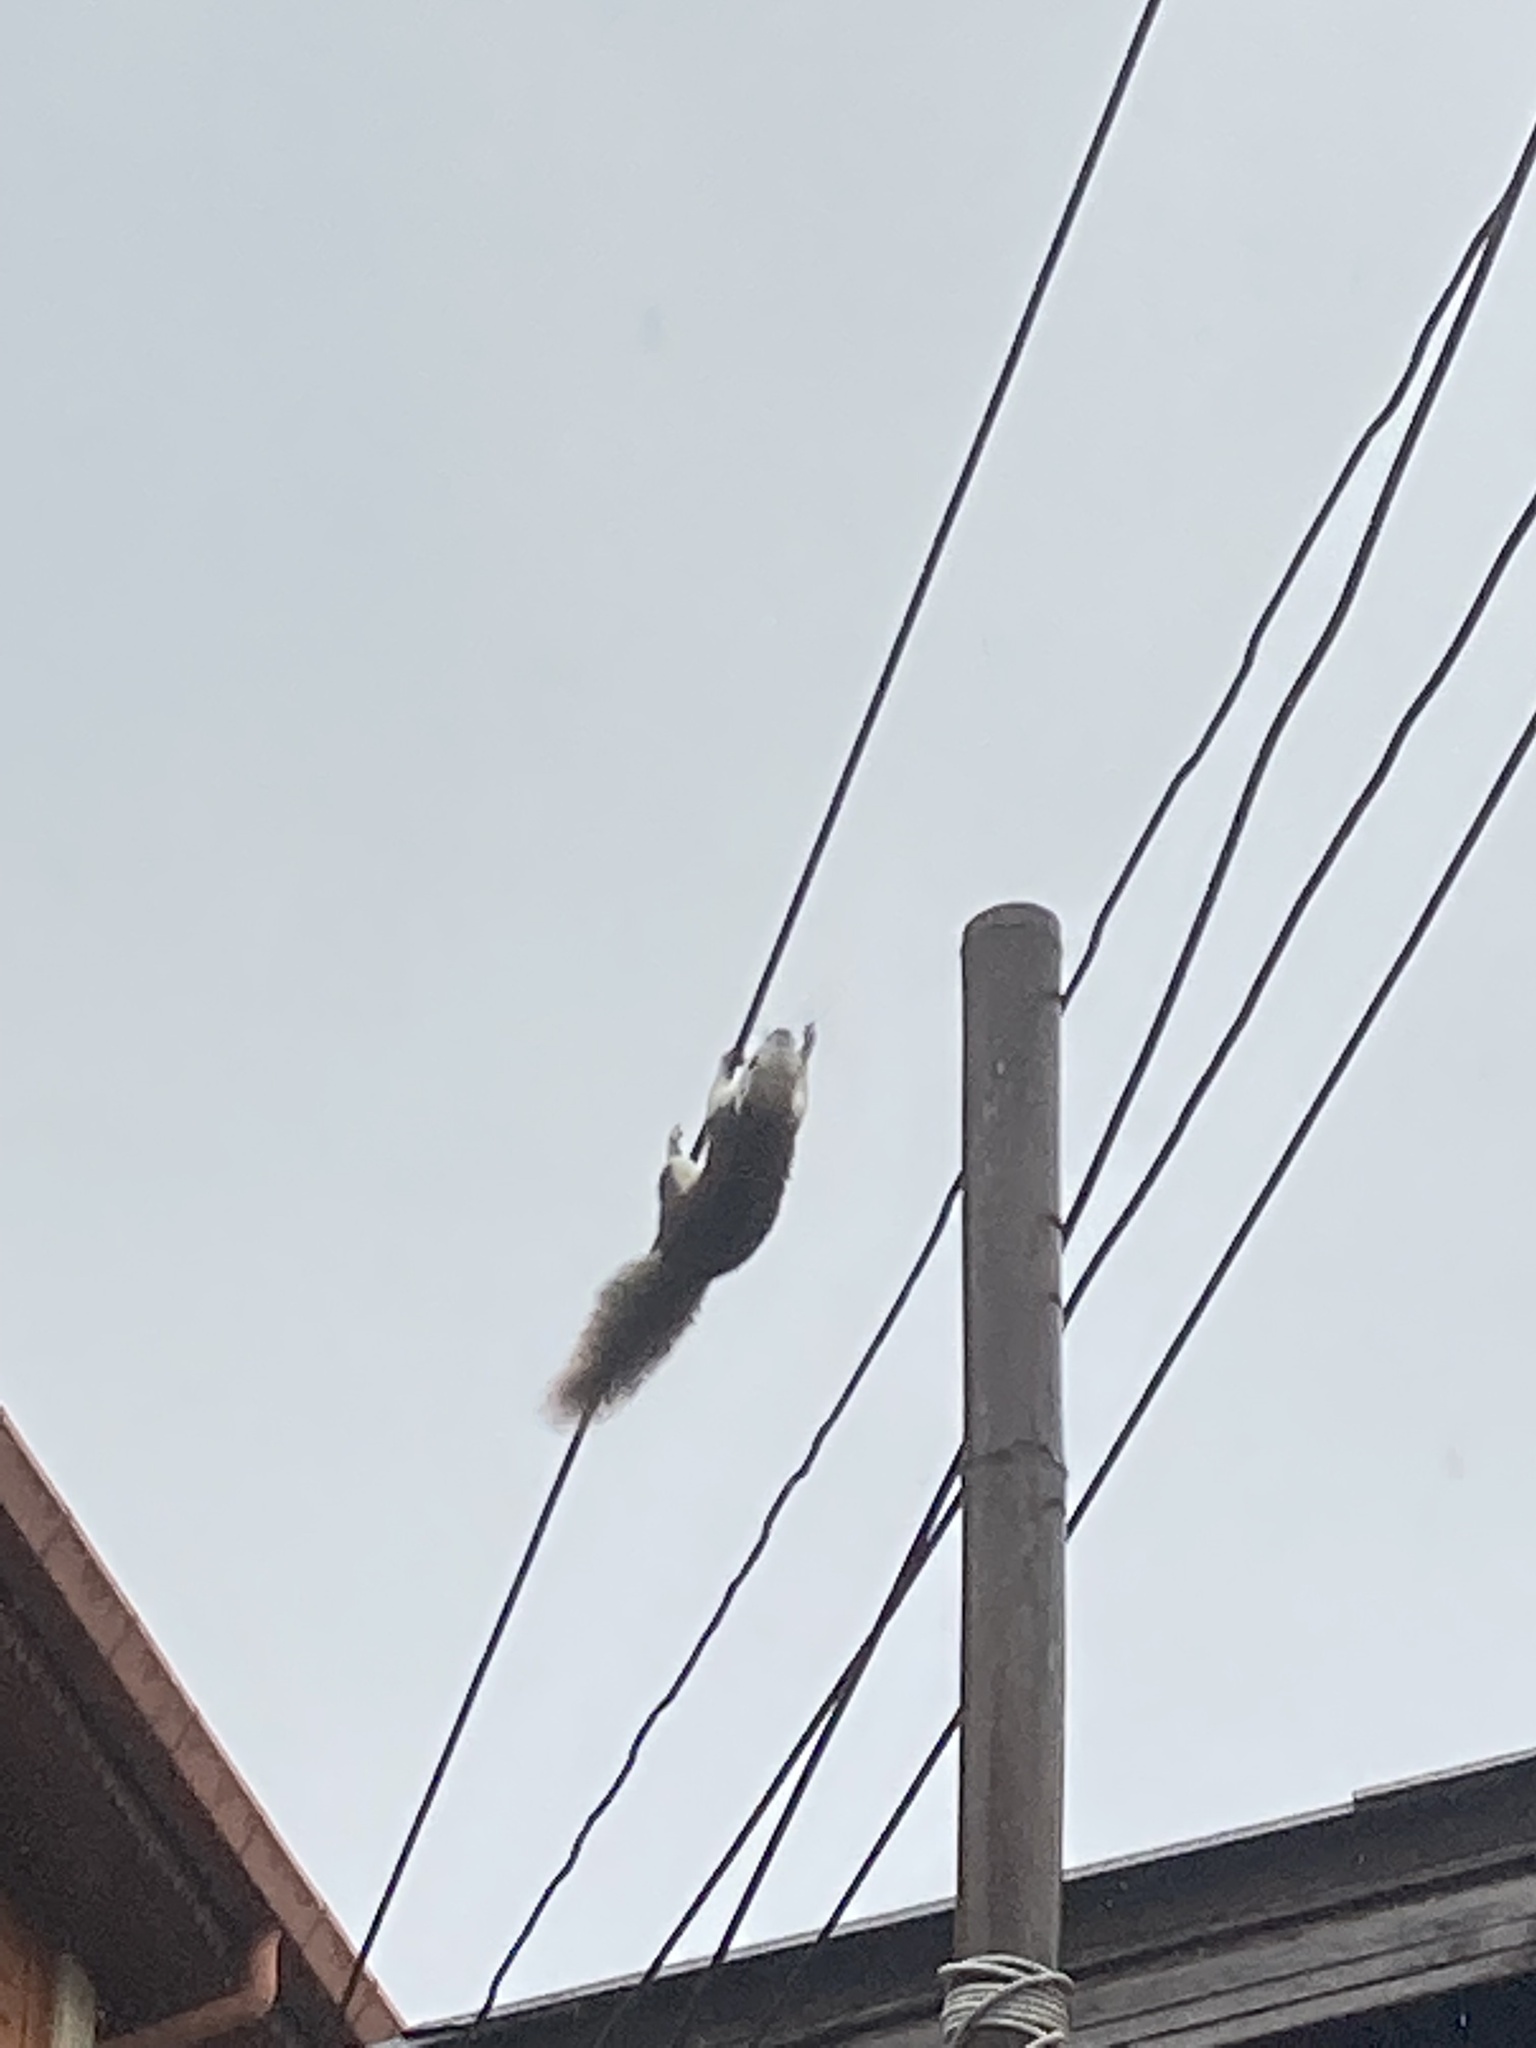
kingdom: Animalia
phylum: Chordata
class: Mammalia
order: Rodentia
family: Sciuridae
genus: Callosciurus
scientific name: Callosciurus finlaysonii
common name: Finlayson's squirrel
